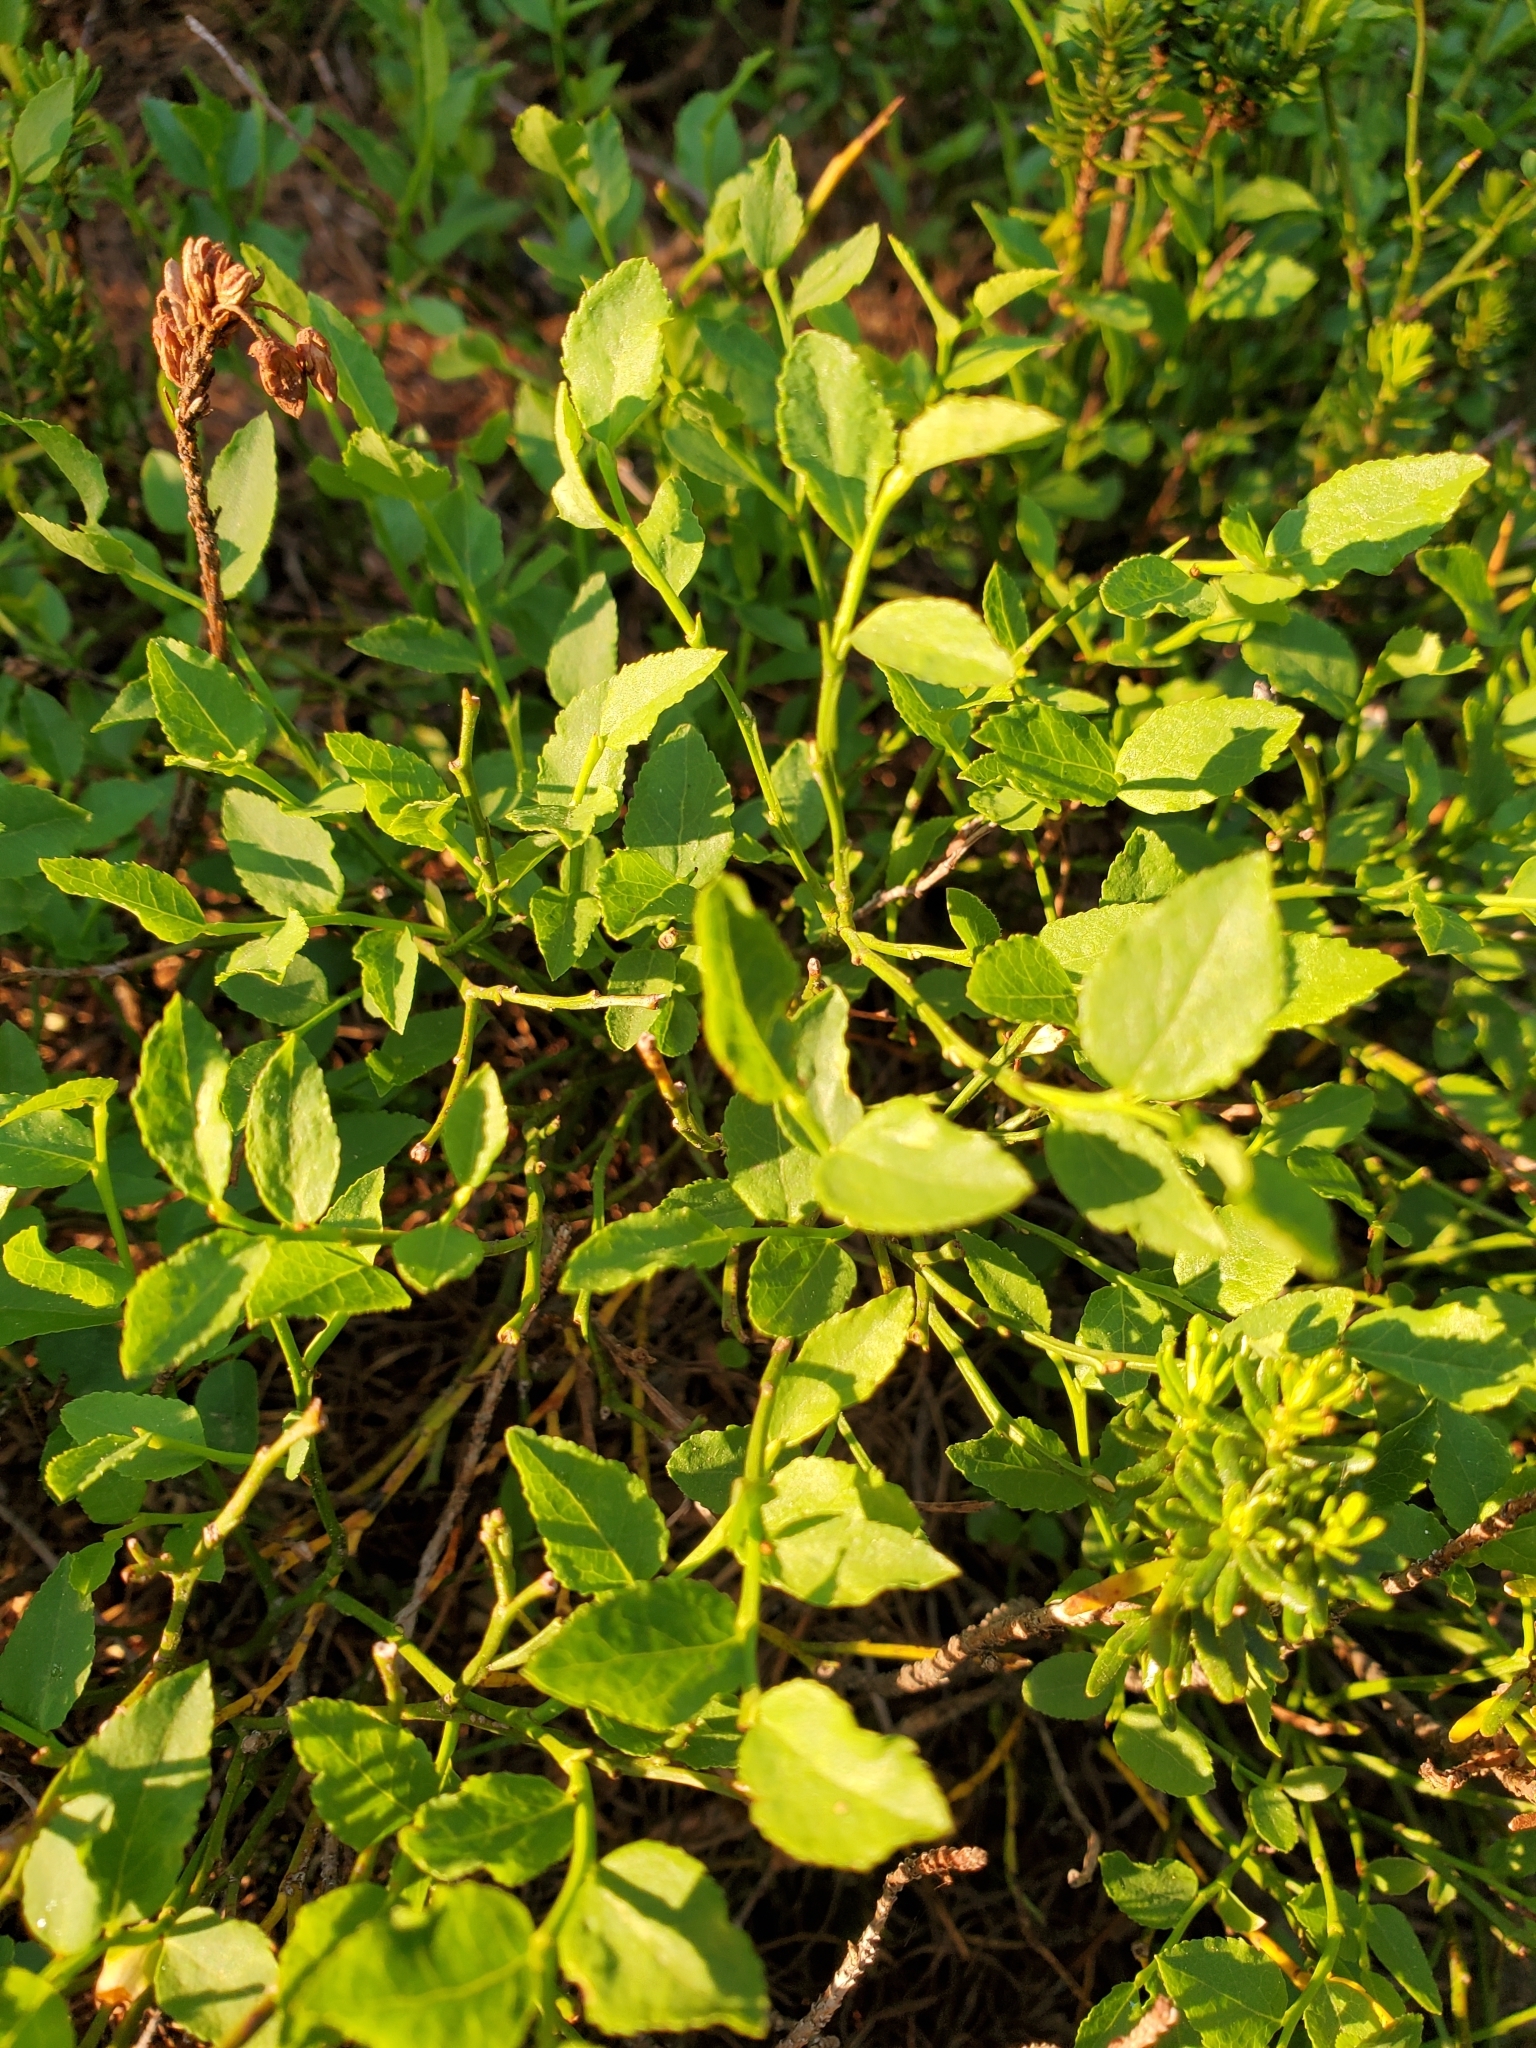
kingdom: Plantae
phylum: Tracheophyta
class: Magnoliopsida
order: Ericales
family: Ericaceae
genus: Vaccinium
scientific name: Vaccinium scoparium
